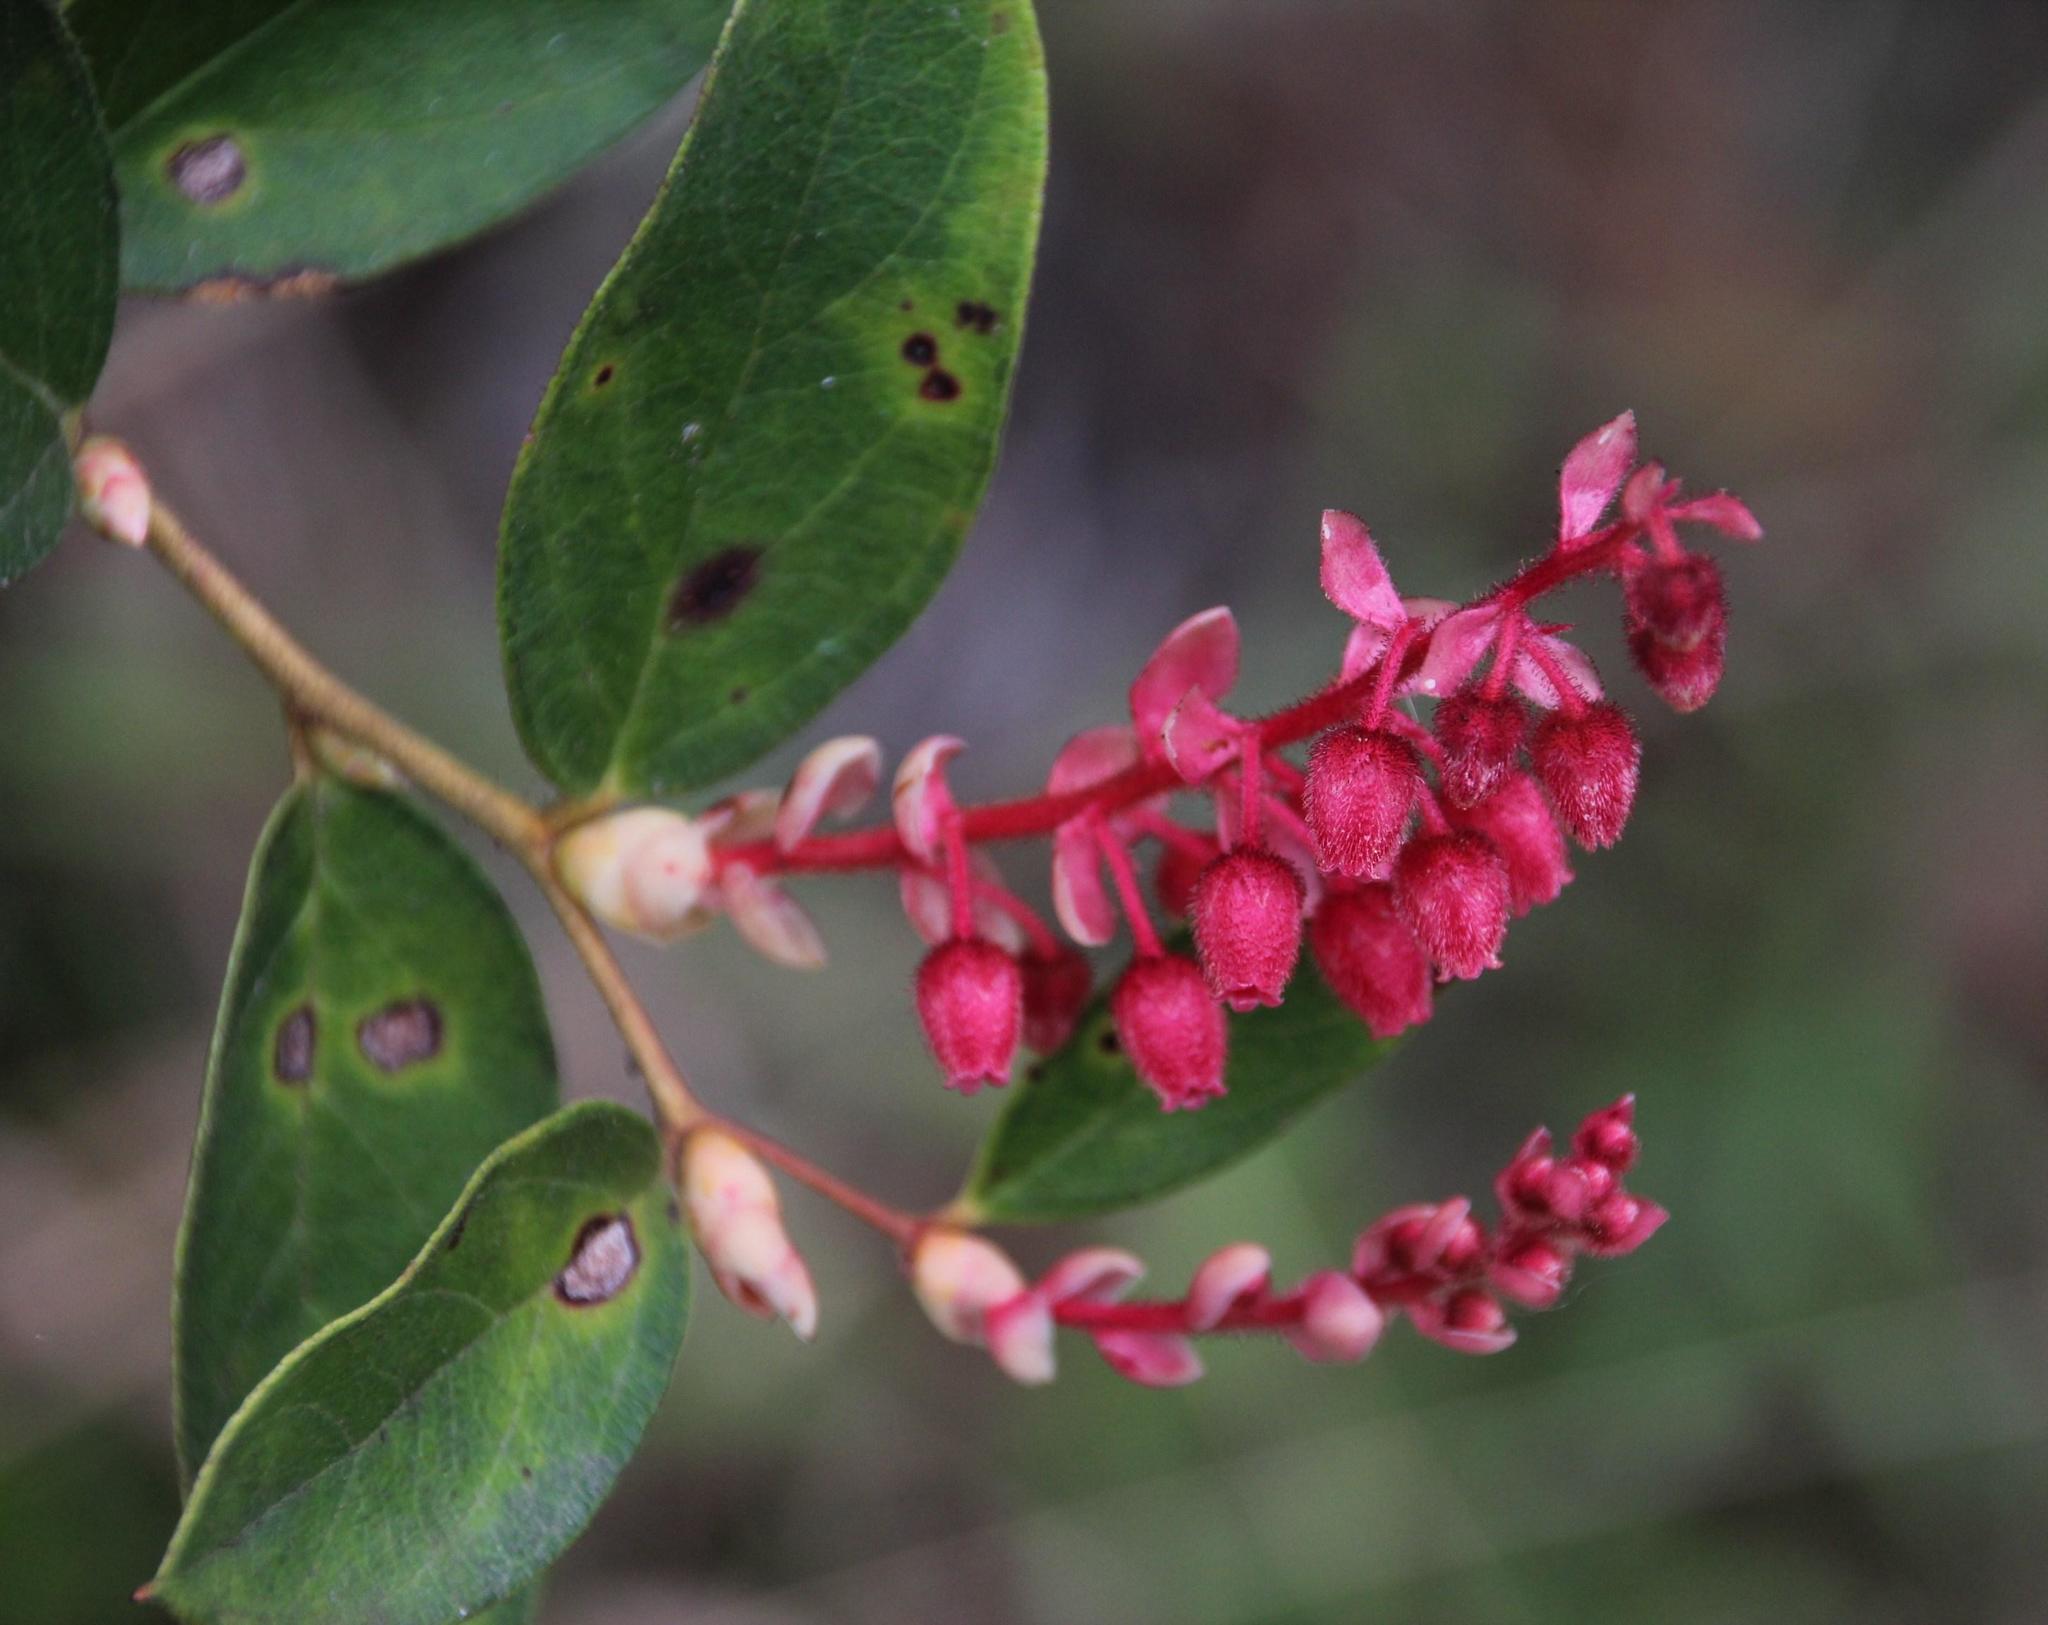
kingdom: Plantae
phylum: Tracheophyta
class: Magnoliopsida
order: Ericales
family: Ericaceae
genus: Gaultheria
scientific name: Gaultheria erecta
